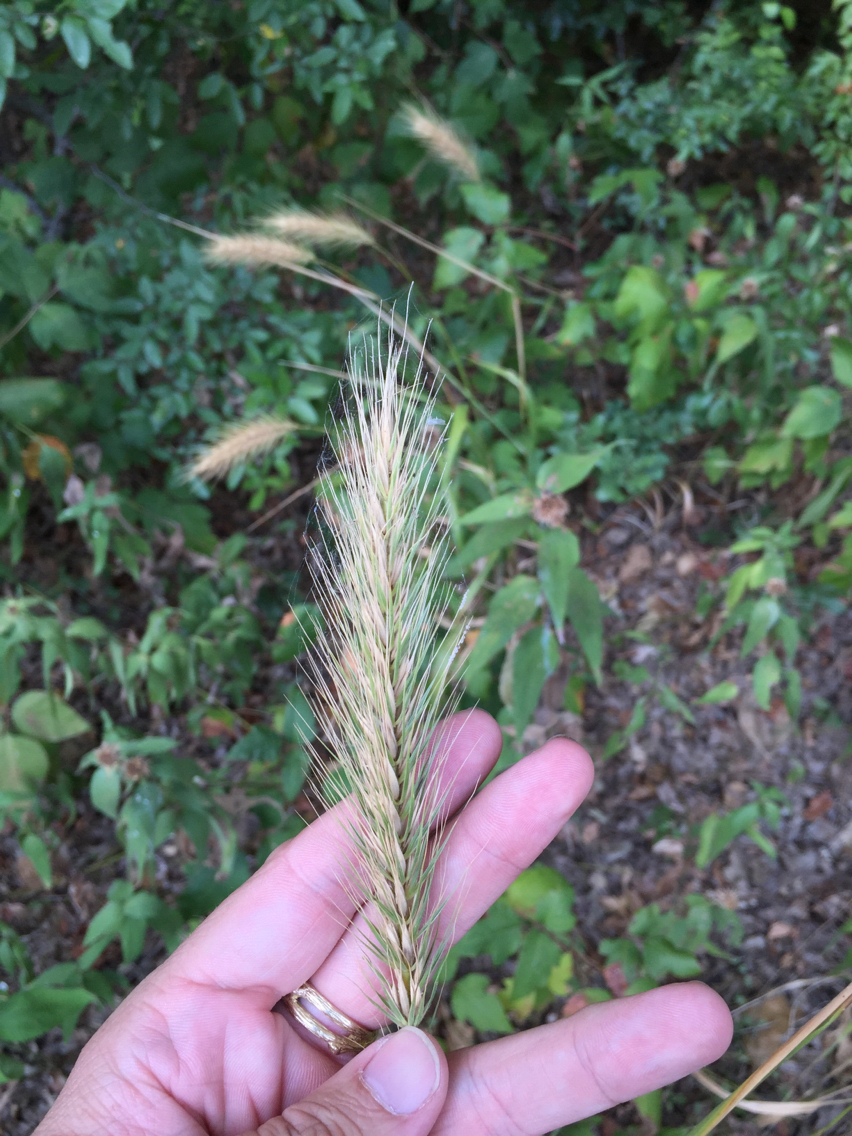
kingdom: Plantae
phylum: Tracheophyta
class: Liliopsida
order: Poales
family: Poaceae
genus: Elymus
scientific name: Elymus canadensis
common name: Canada wild rye
